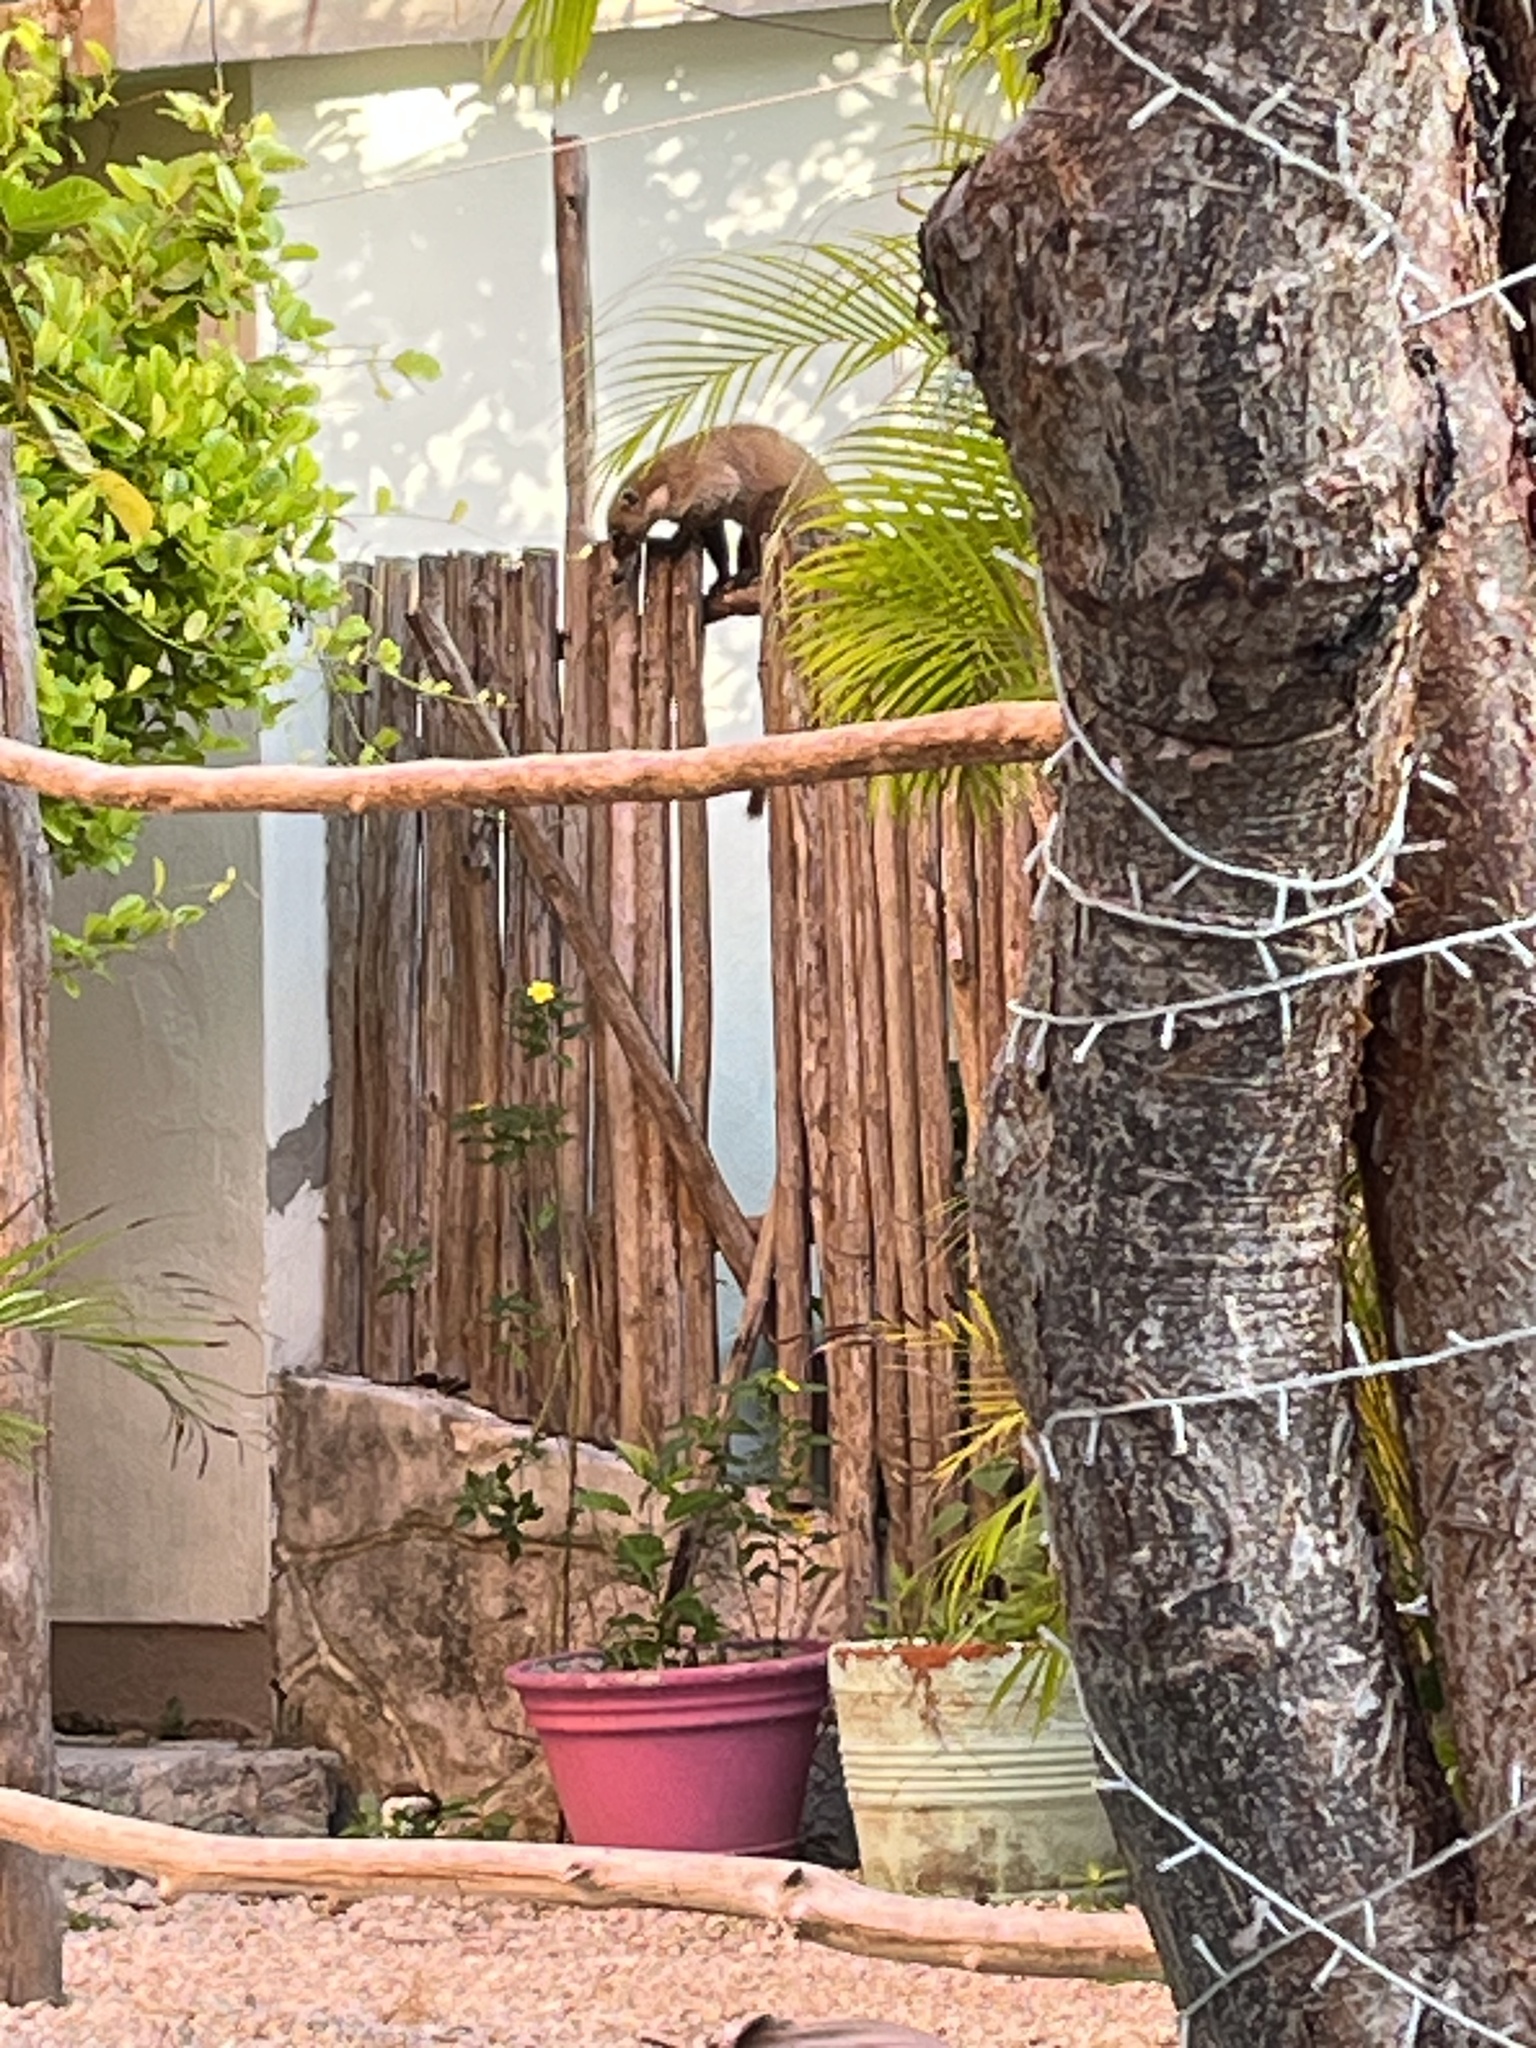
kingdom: Animalia
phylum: Chordata
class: Mammalia
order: Carnivora
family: Procyonidae
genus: Nasua
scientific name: Nasua narica
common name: White-nosed coati
